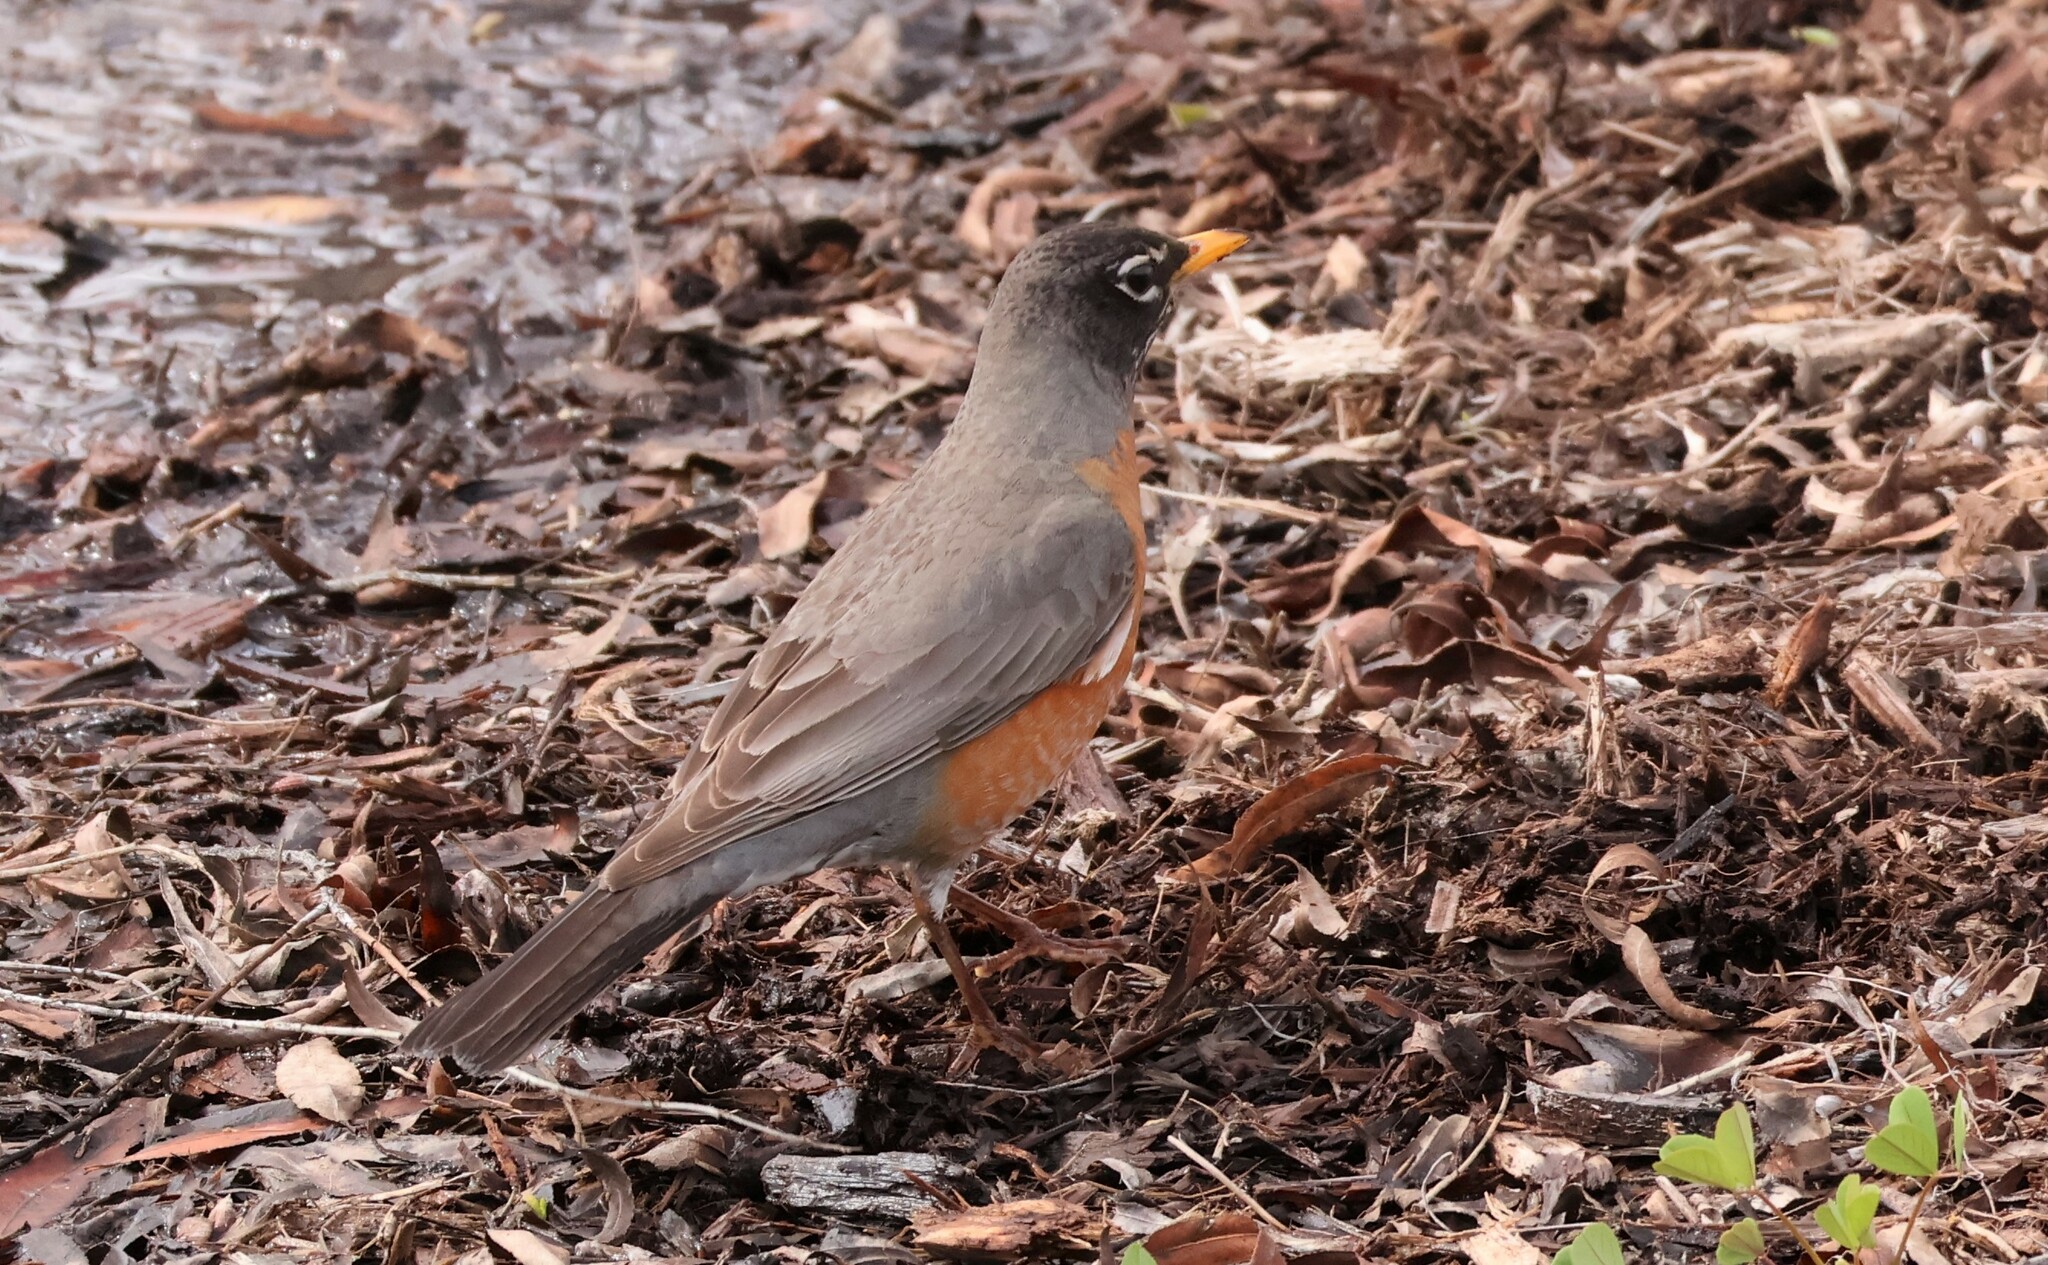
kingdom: Animalia
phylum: Chordata
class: Aves
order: Passeriformes
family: Turdidae
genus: Turdus
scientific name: Turdus migratorius
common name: American robin
